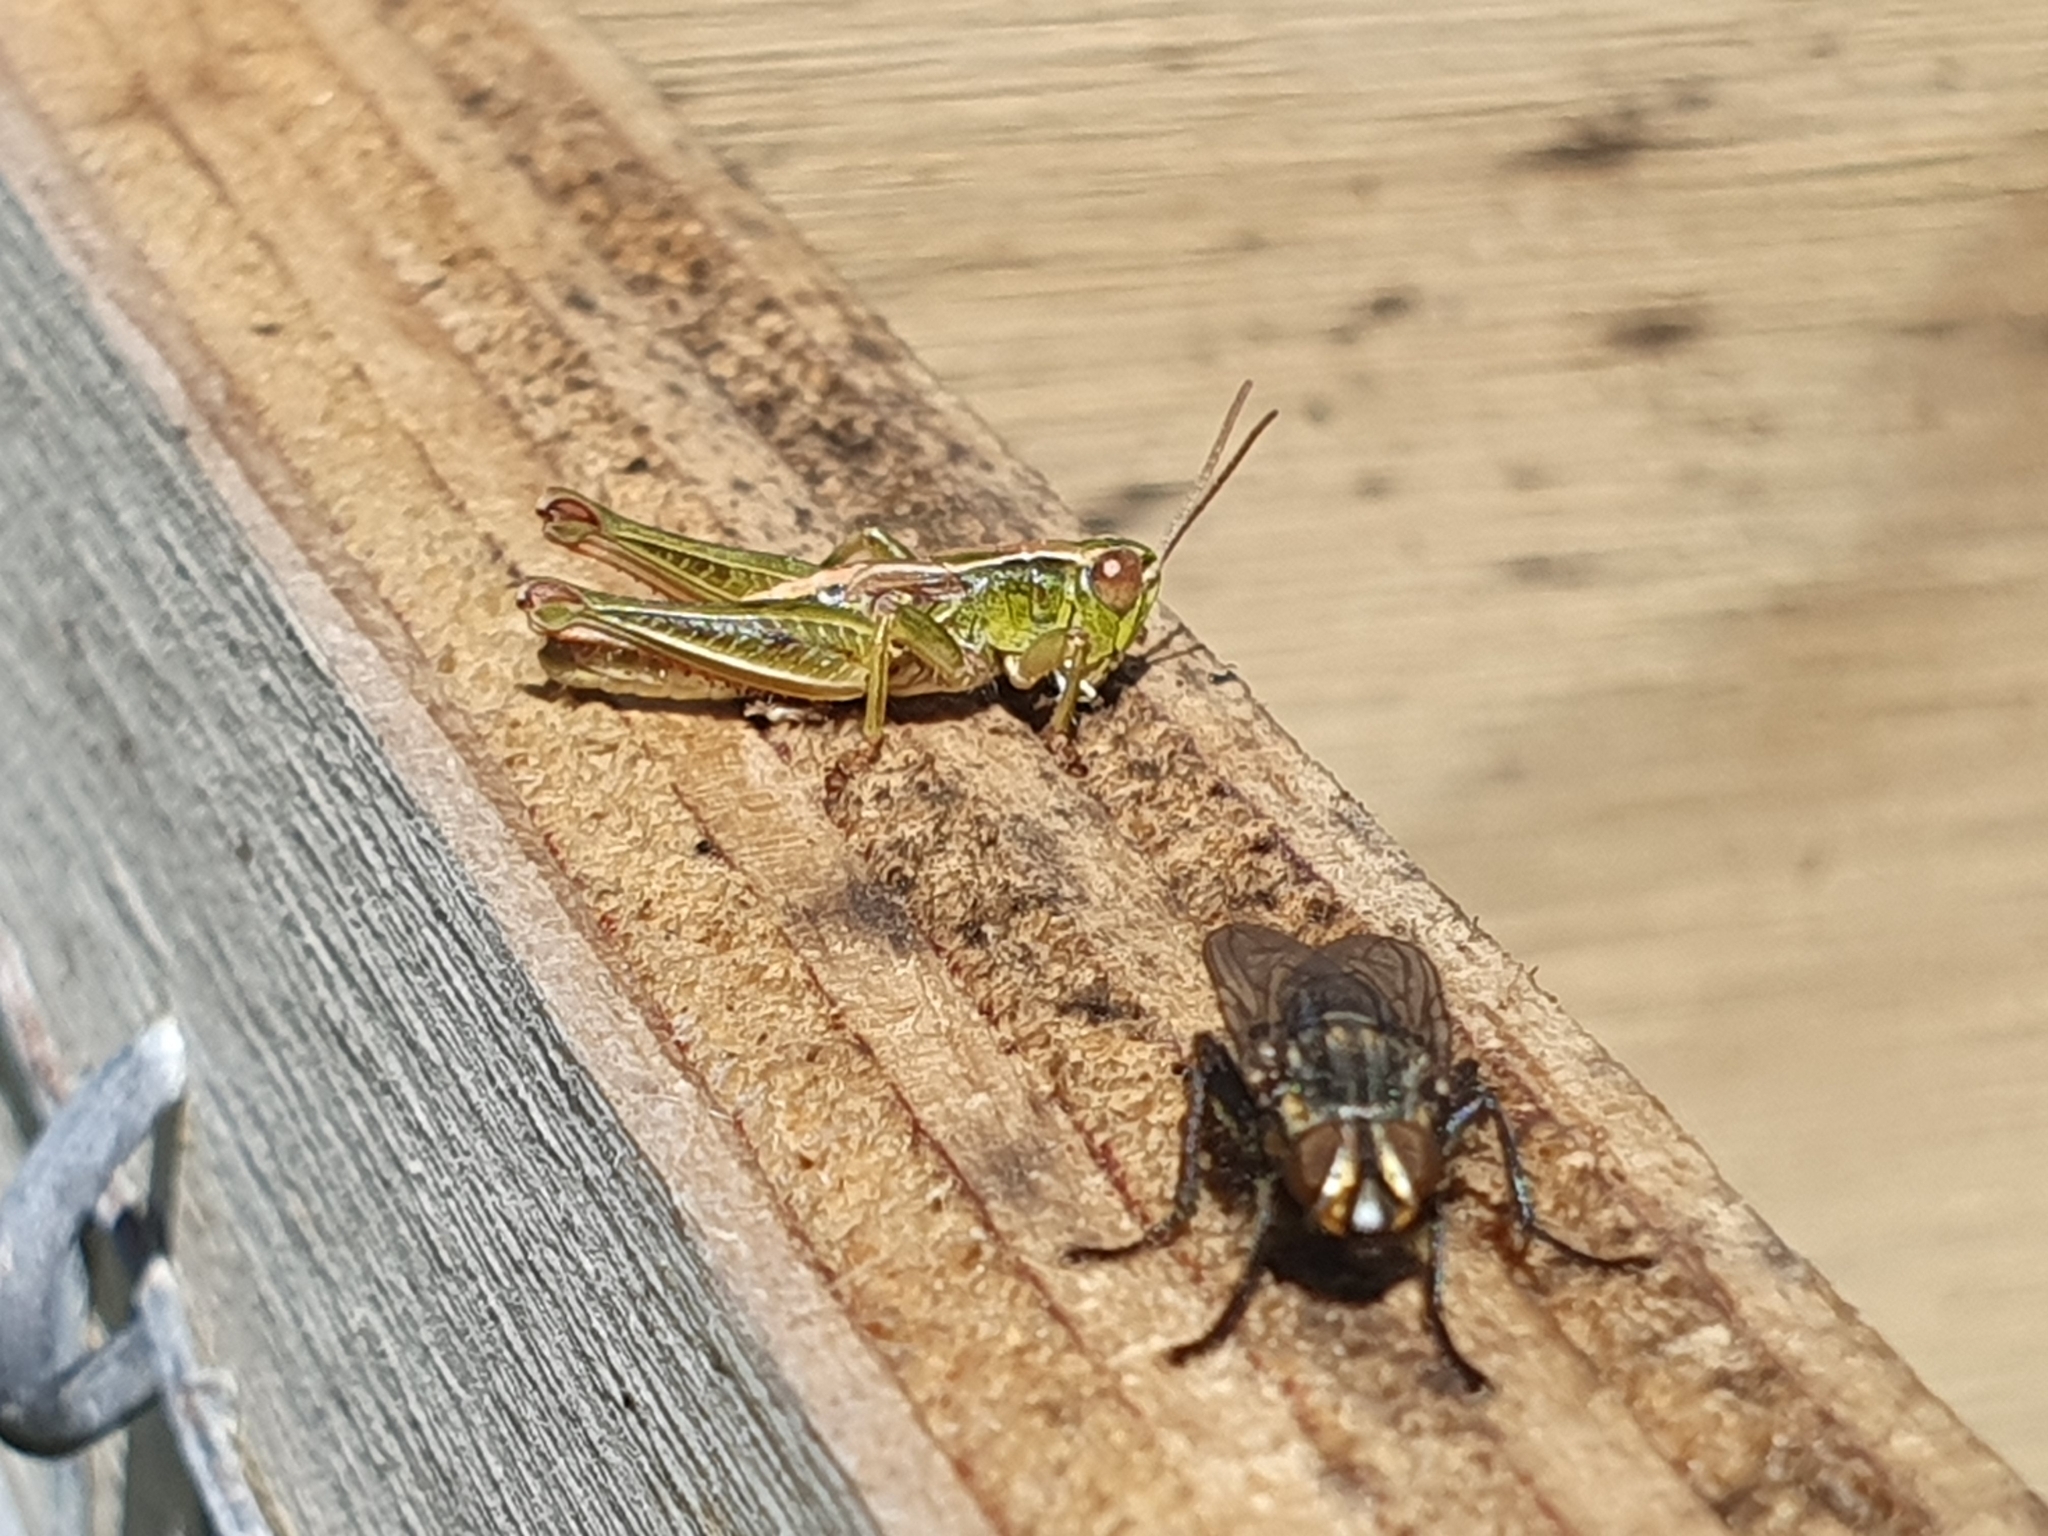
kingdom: Animalia
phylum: Arthropoda
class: Insecta
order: Orthoptera
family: Acrididae
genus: Phaulacridium
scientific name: Phaulacridium marginale
